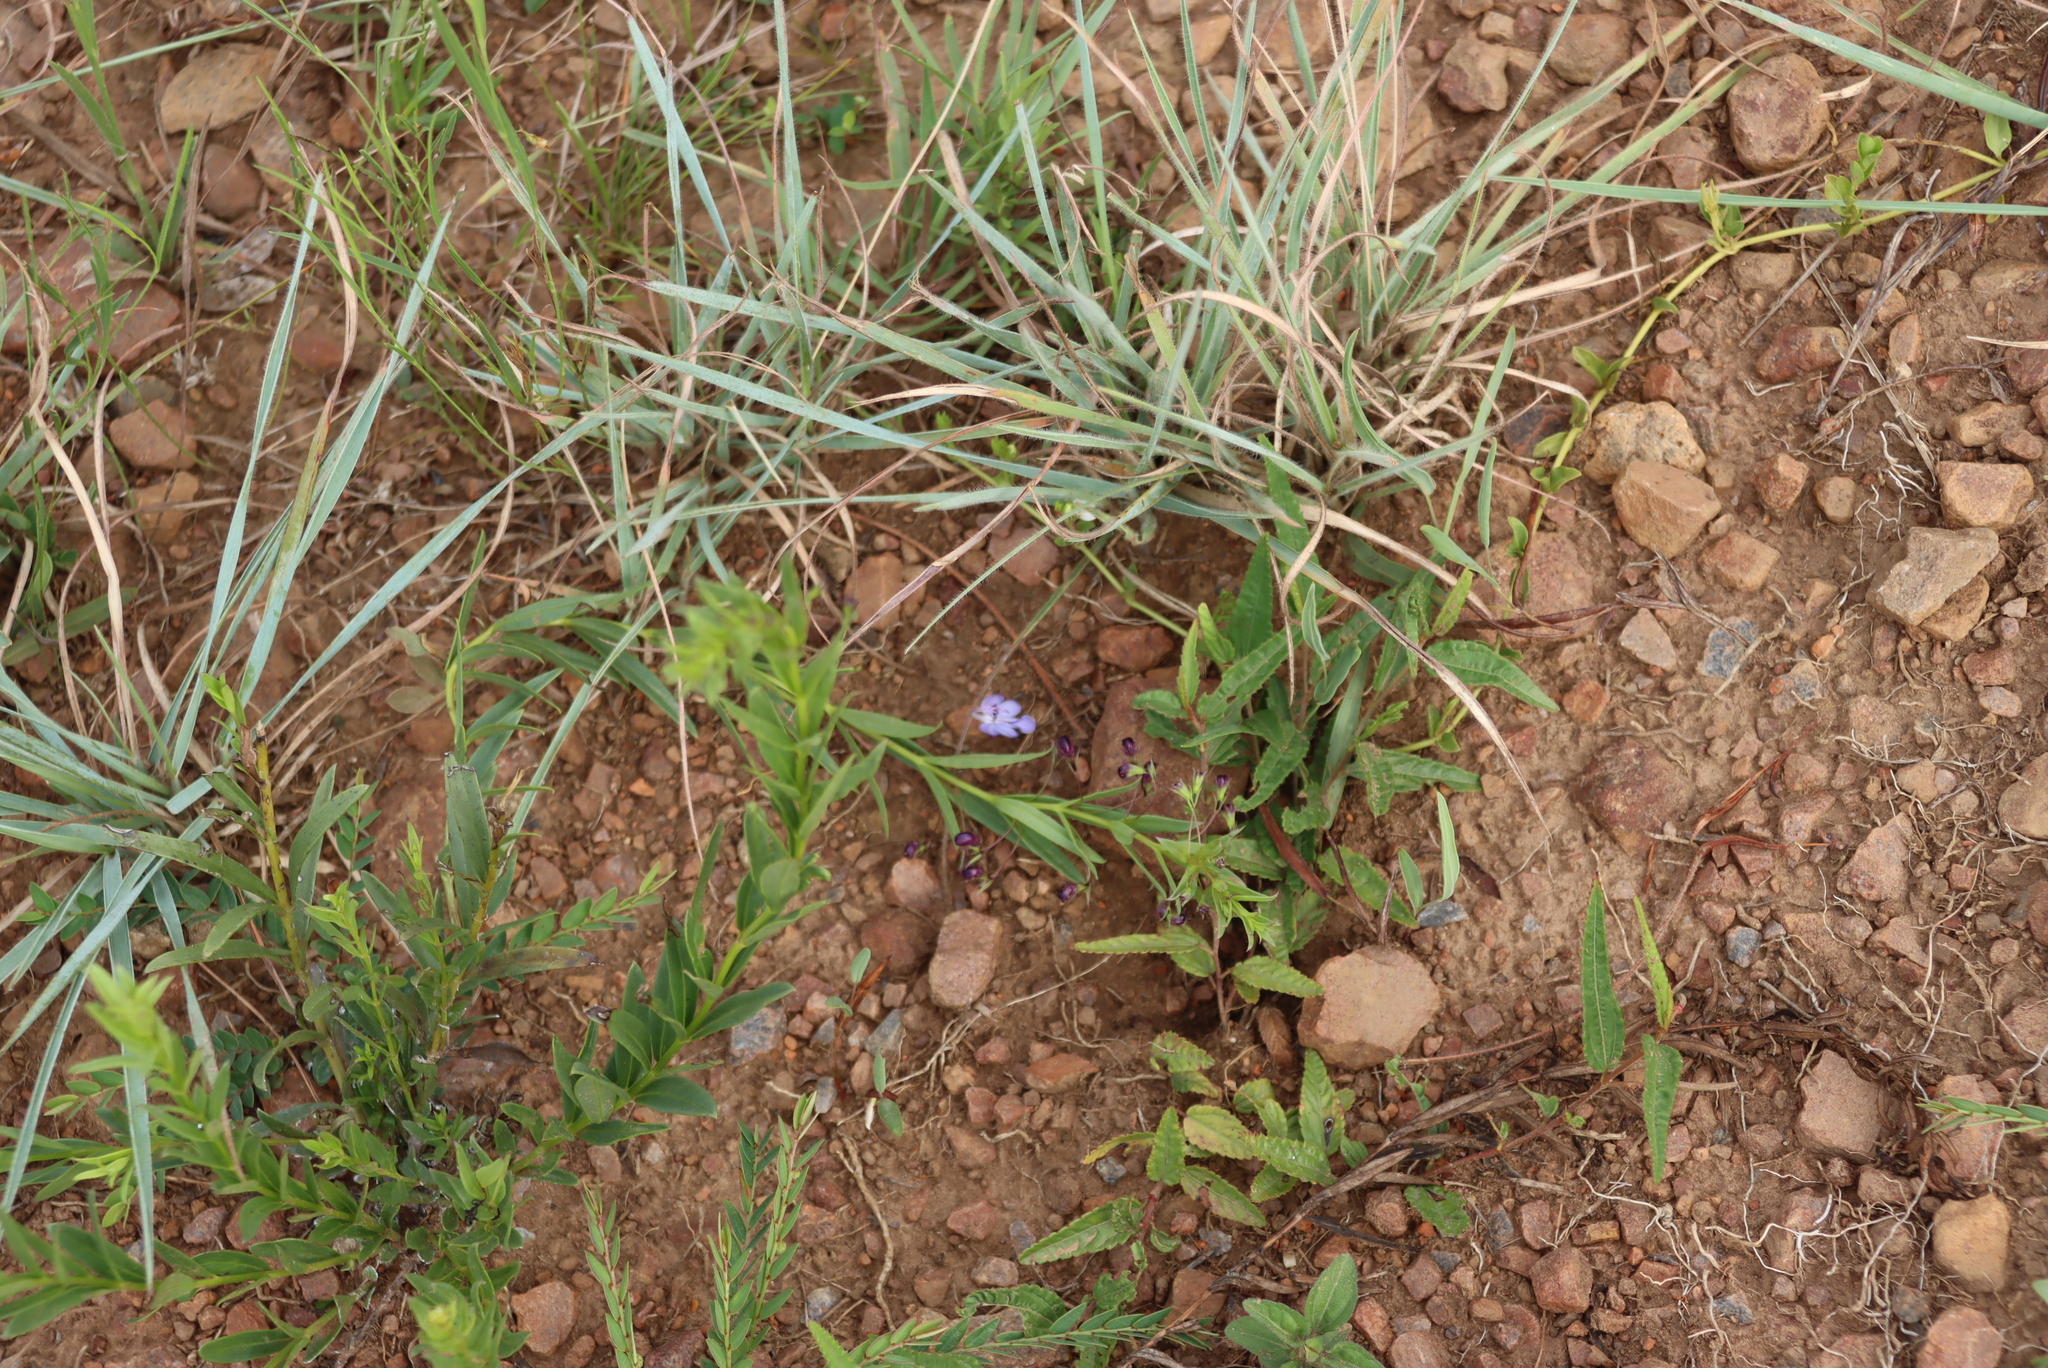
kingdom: Plantae
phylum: Tracheophyta
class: Magnoliopsida
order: Lamiales
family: Lamiaceae
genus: Rotheca
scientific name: Rotheca hirsuta
